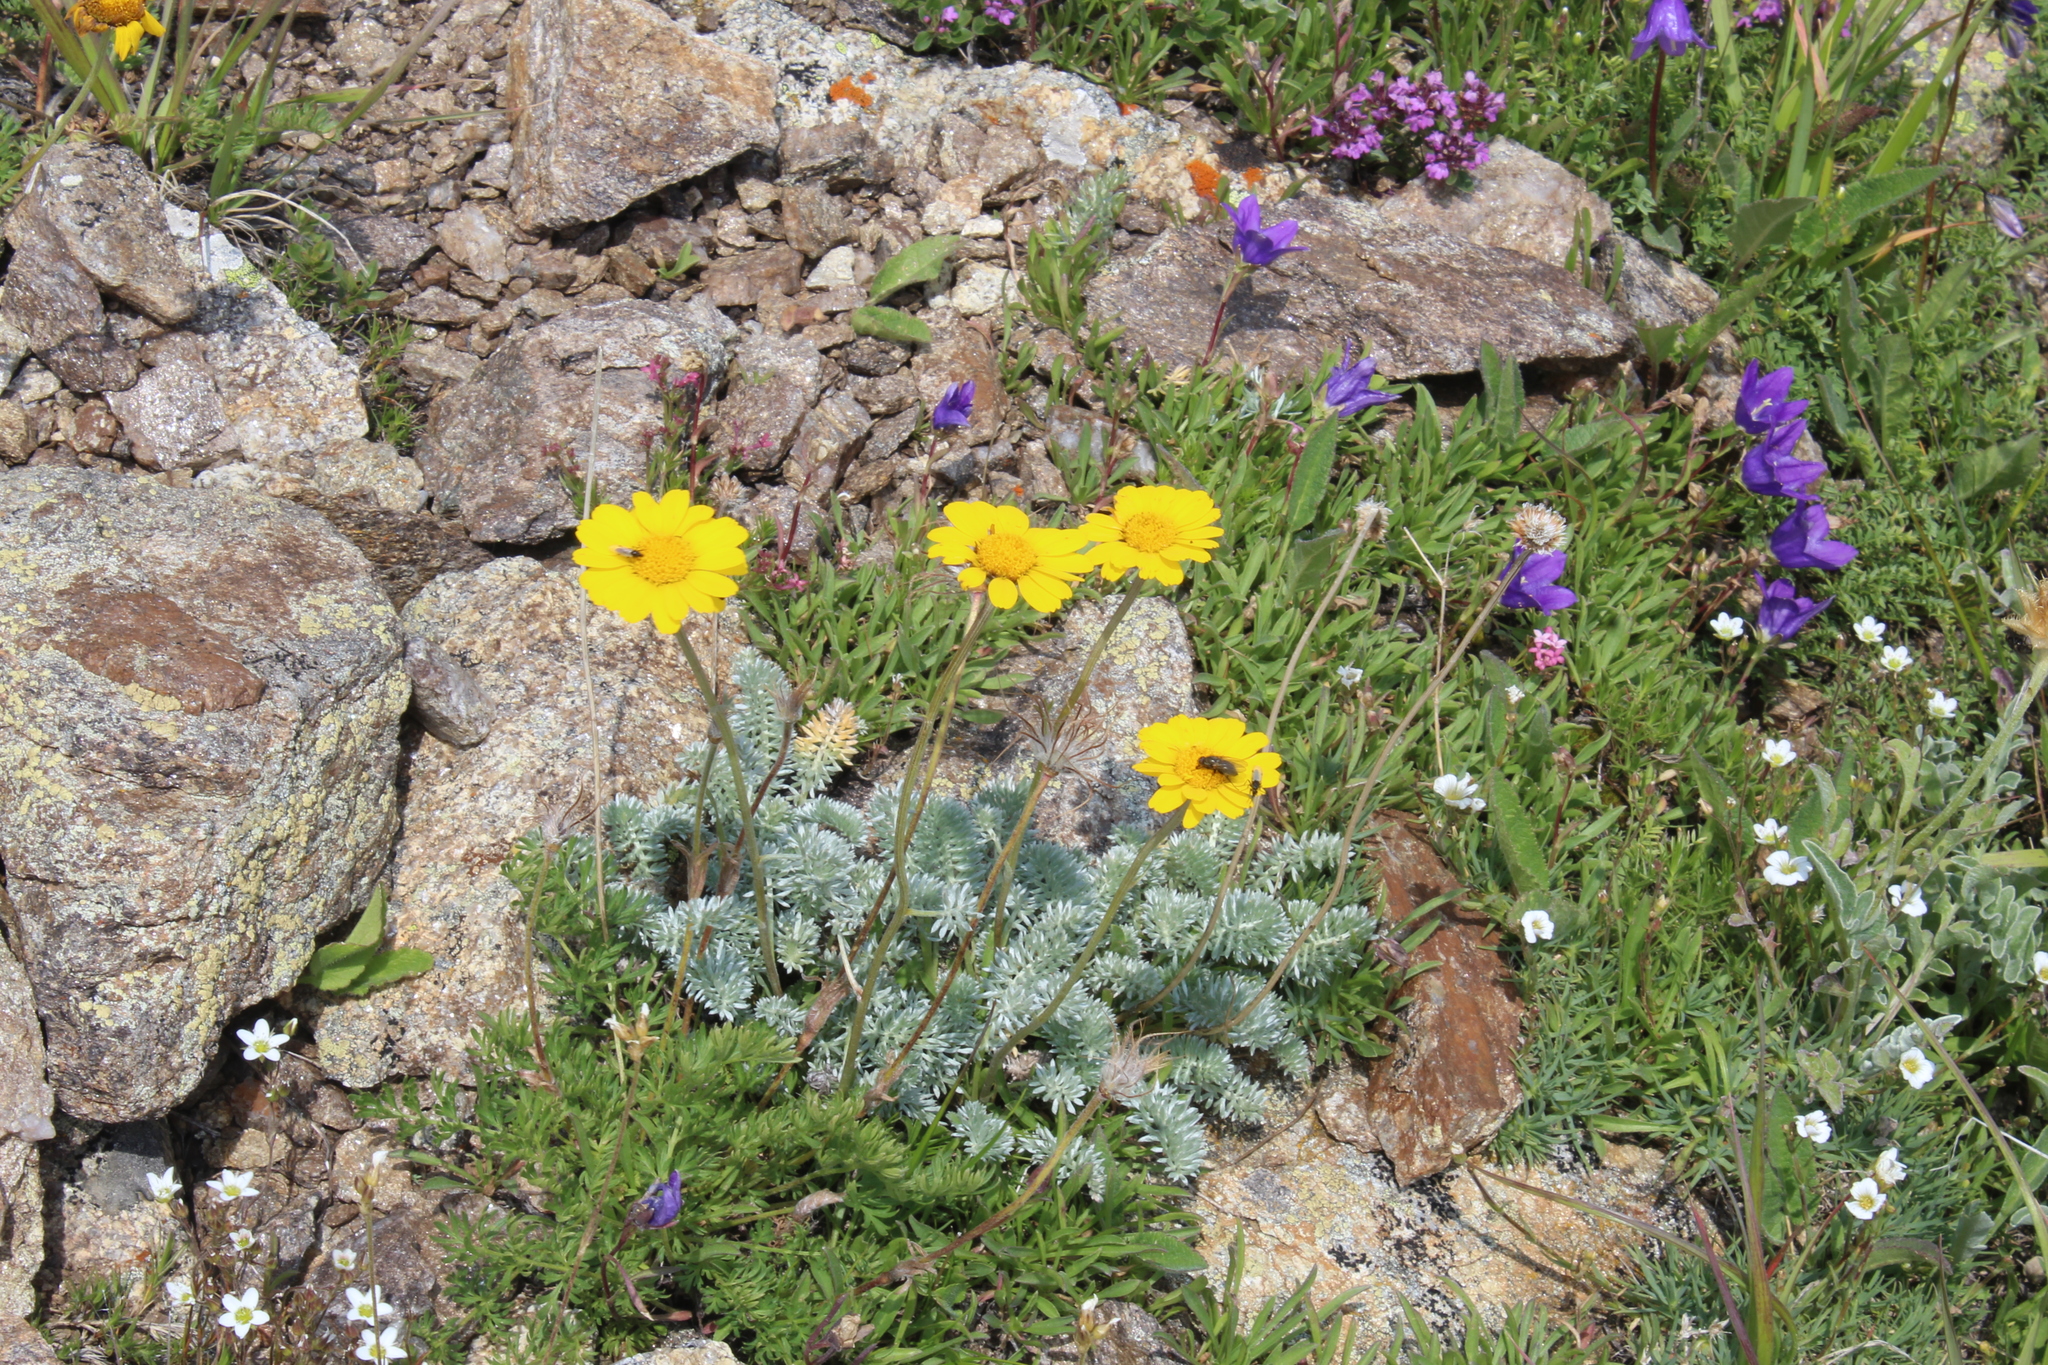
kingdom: Plantae
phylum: Tracheophyta
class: Magnoliopsida
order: Asterales
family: Asteraceae
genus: Archanthemis
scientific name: Archanthemis marschalliana
